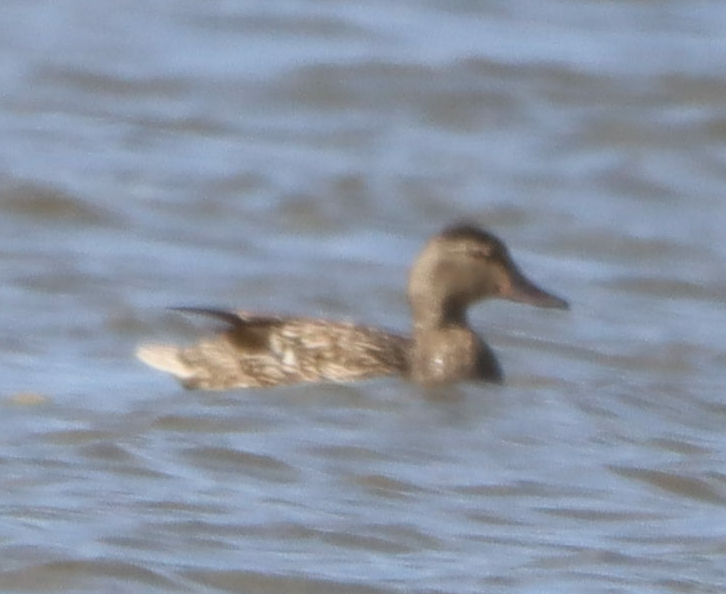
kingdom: Animalia
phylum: Chordata
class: Aves
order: Anseriformes
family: Anatidae
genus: Anas
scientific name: Anas platyrhynchos
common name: Mallard
